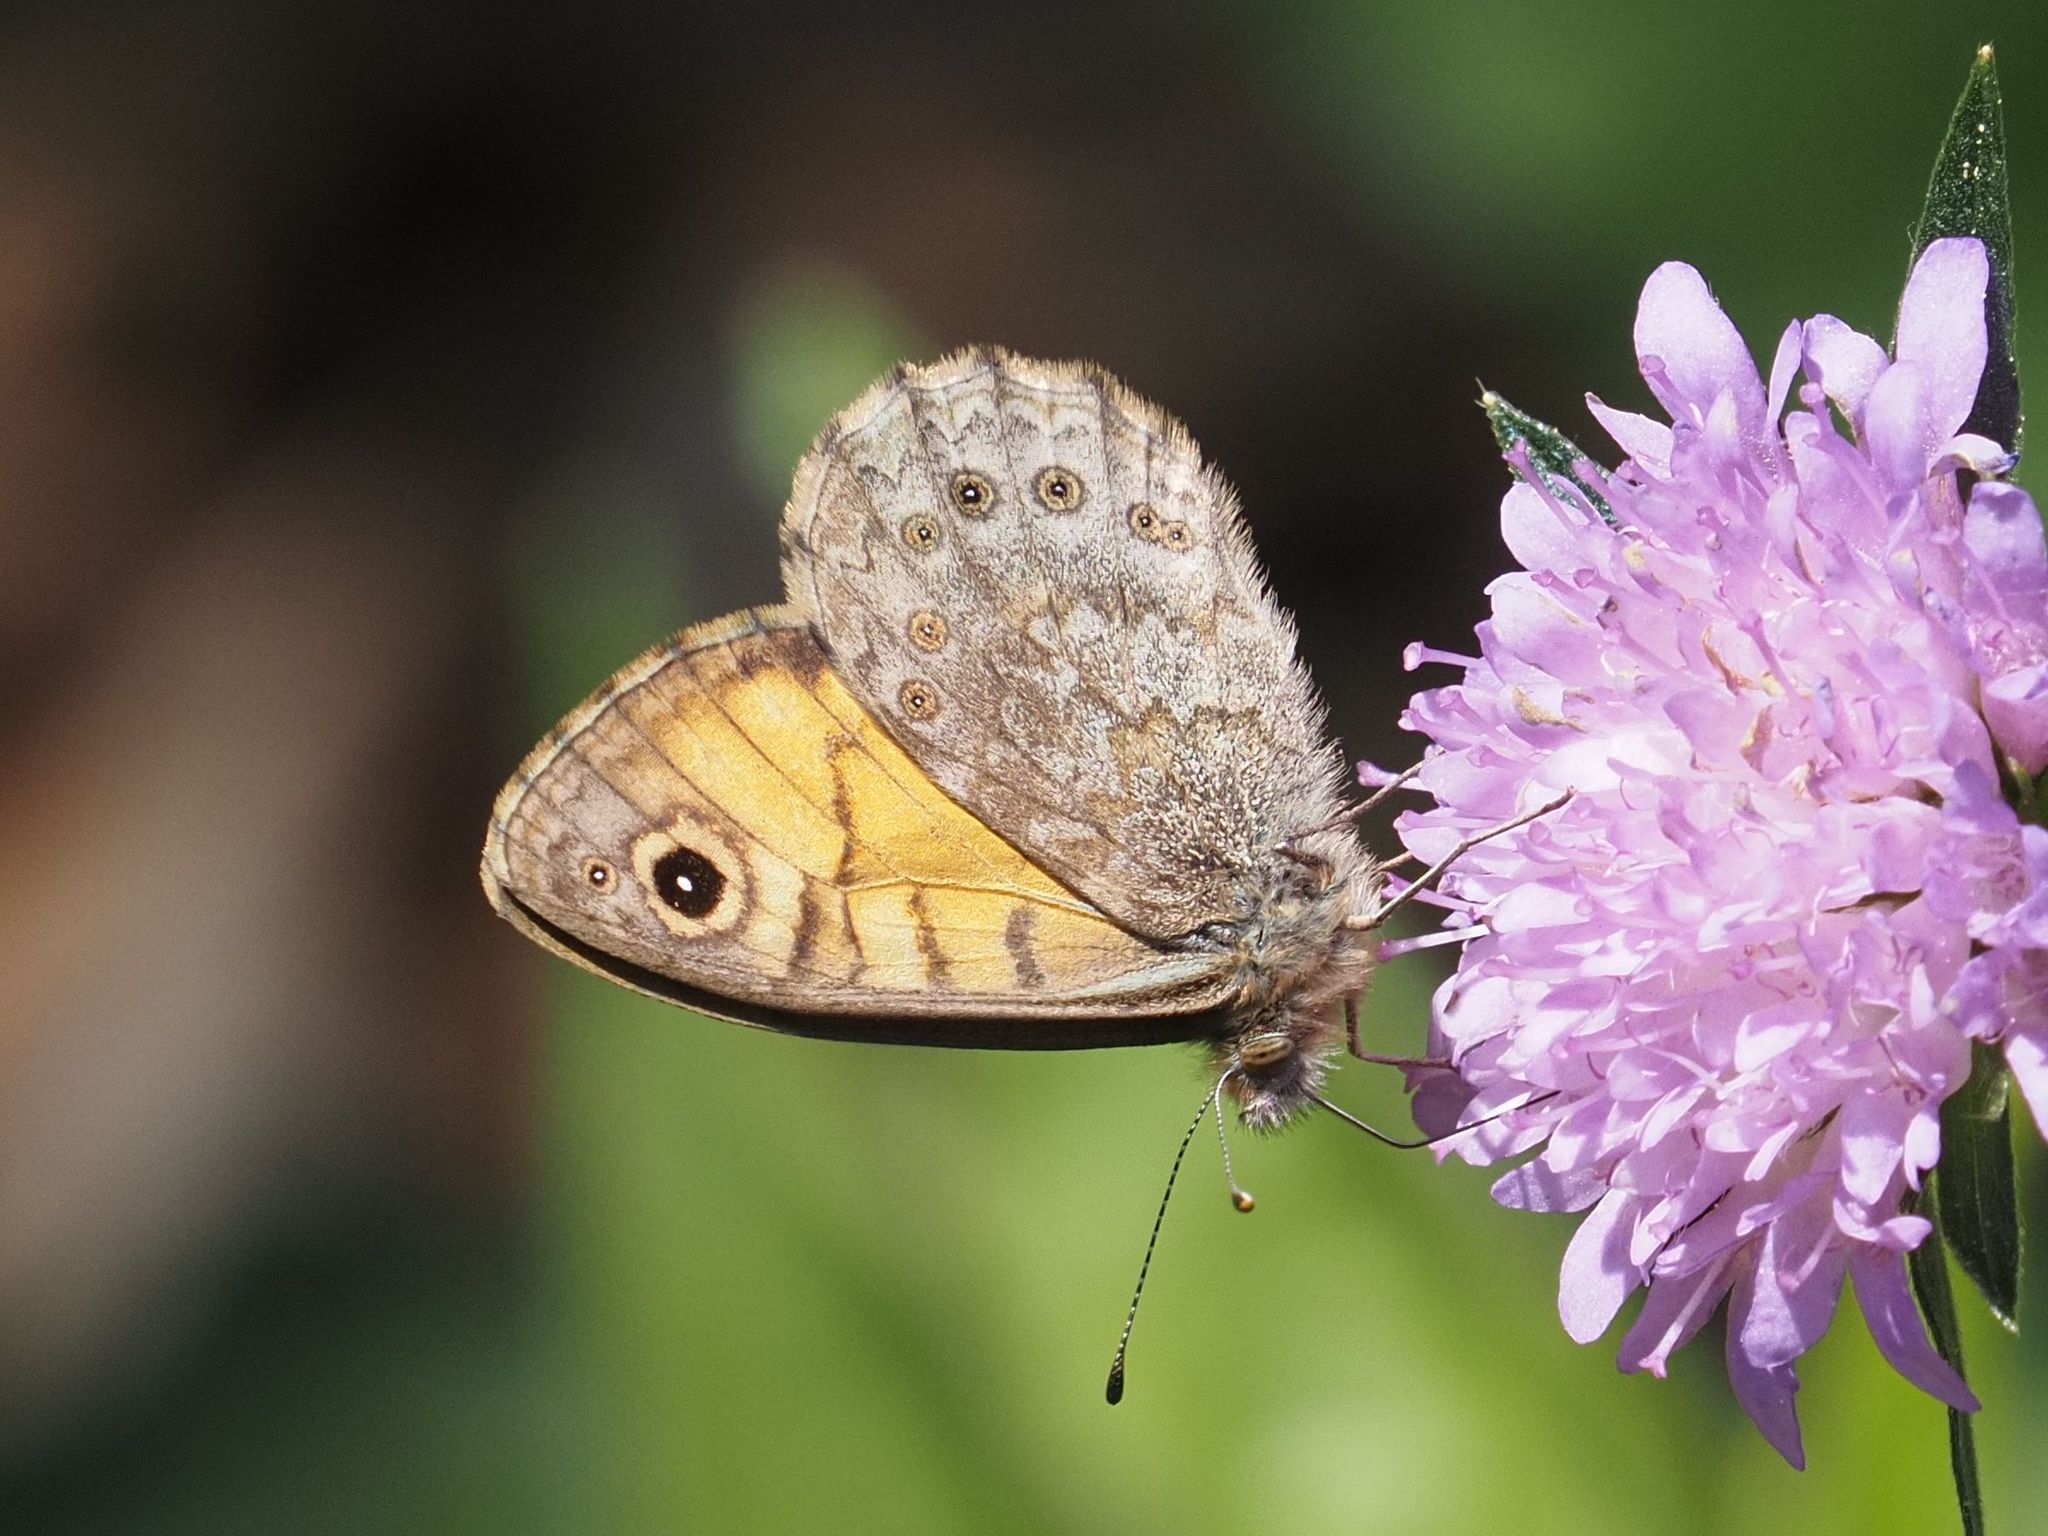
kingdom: Animalia
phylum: Arthropoda
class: Insecta
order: Lepidoptera
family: Nymphalidae
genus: Pararge
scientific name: Pararge Lasiommata megera
